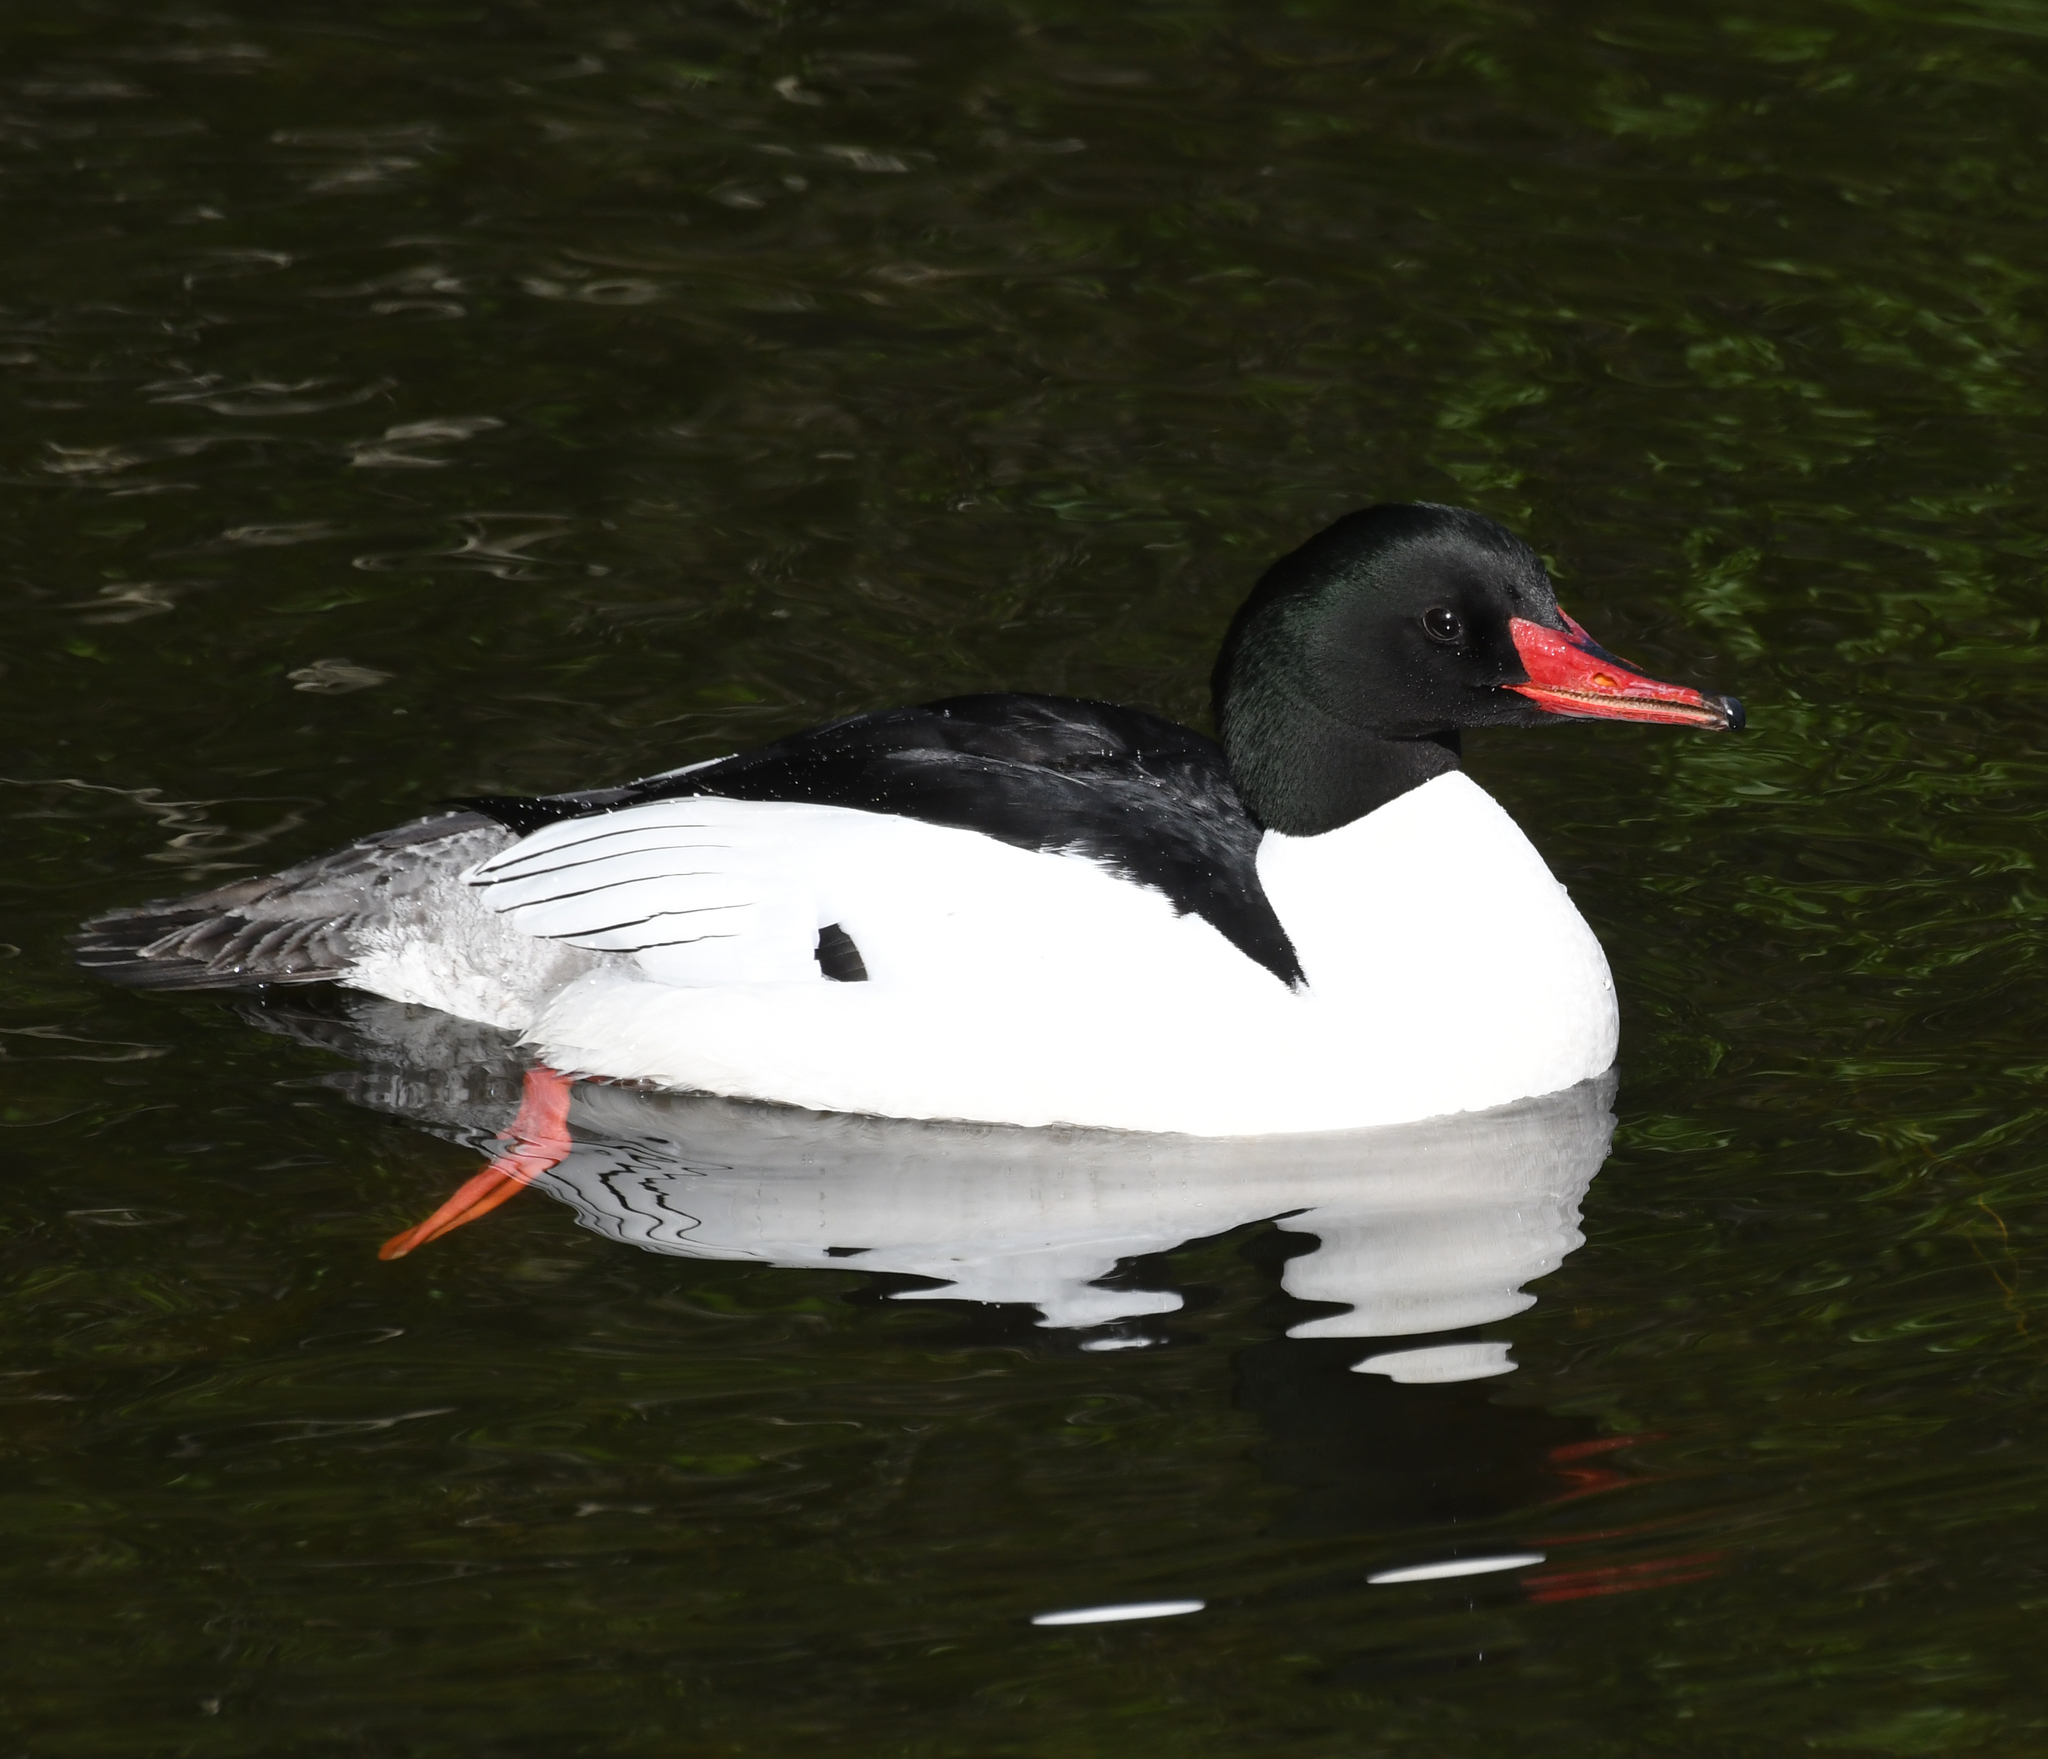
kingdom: Animalia
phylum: Chordata
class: Aves
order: Anseriformes
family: Anatidae
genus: Mergus
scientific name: Mergus merganser
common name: Common merganser
